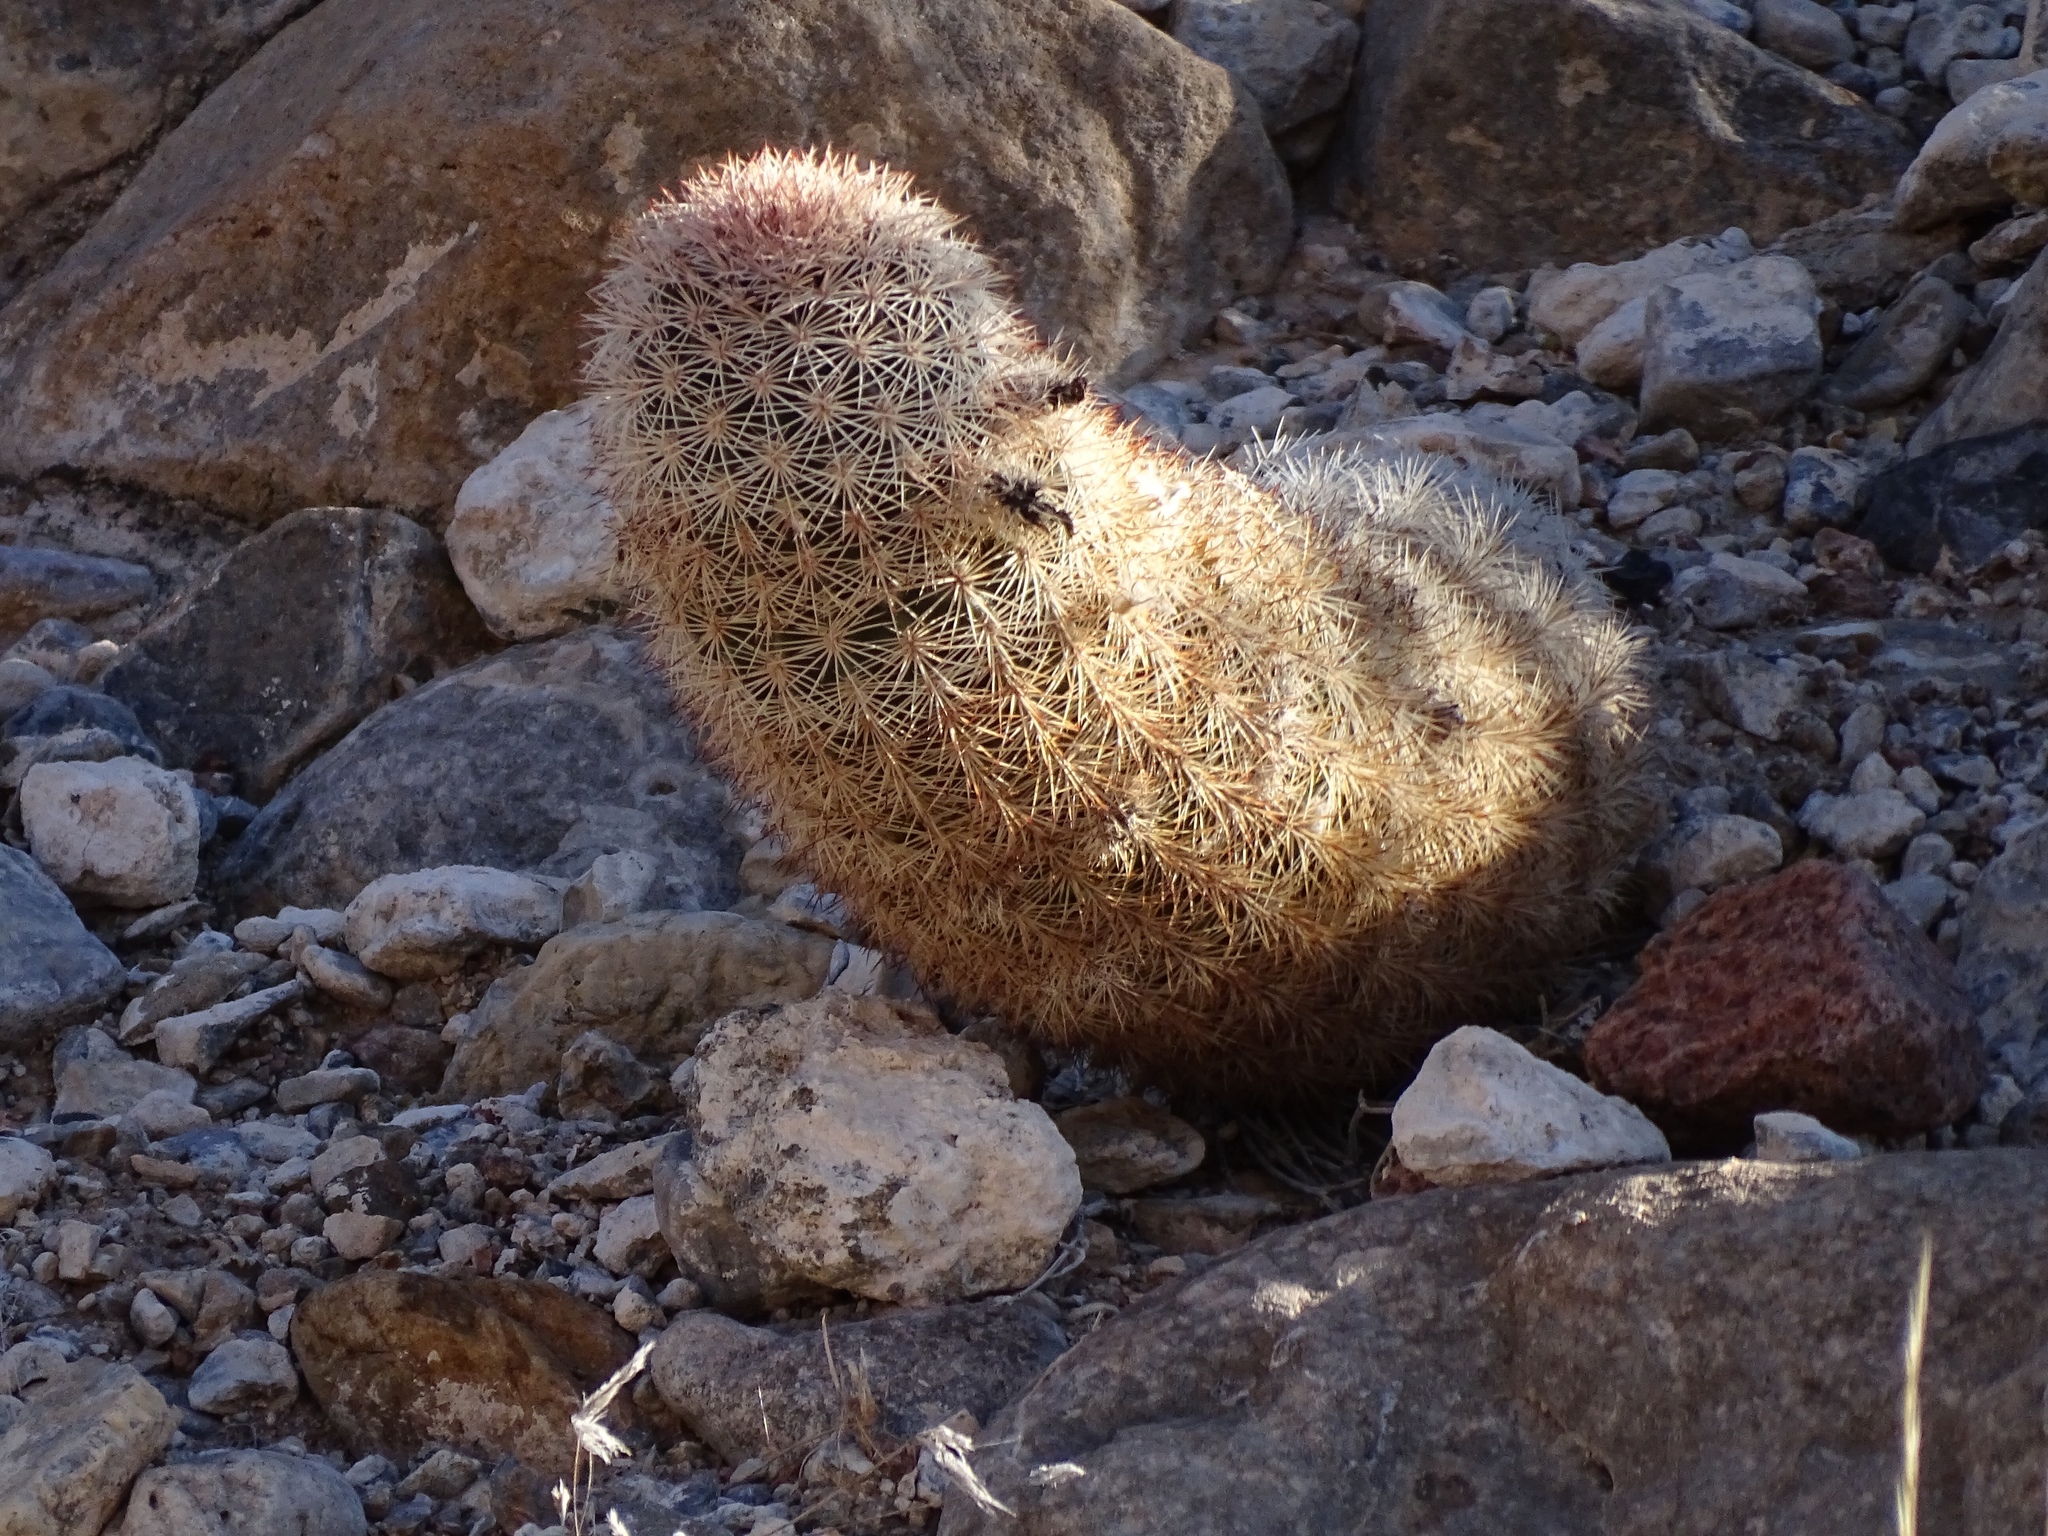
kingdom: Plantae
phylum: Tracheophyta
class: Magnoliopsida
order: Caryophyllales
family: Cactaceae
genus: Echinocereus
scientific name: Echinocereus dasyacanthus
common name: Spiny hedgehog cactus
